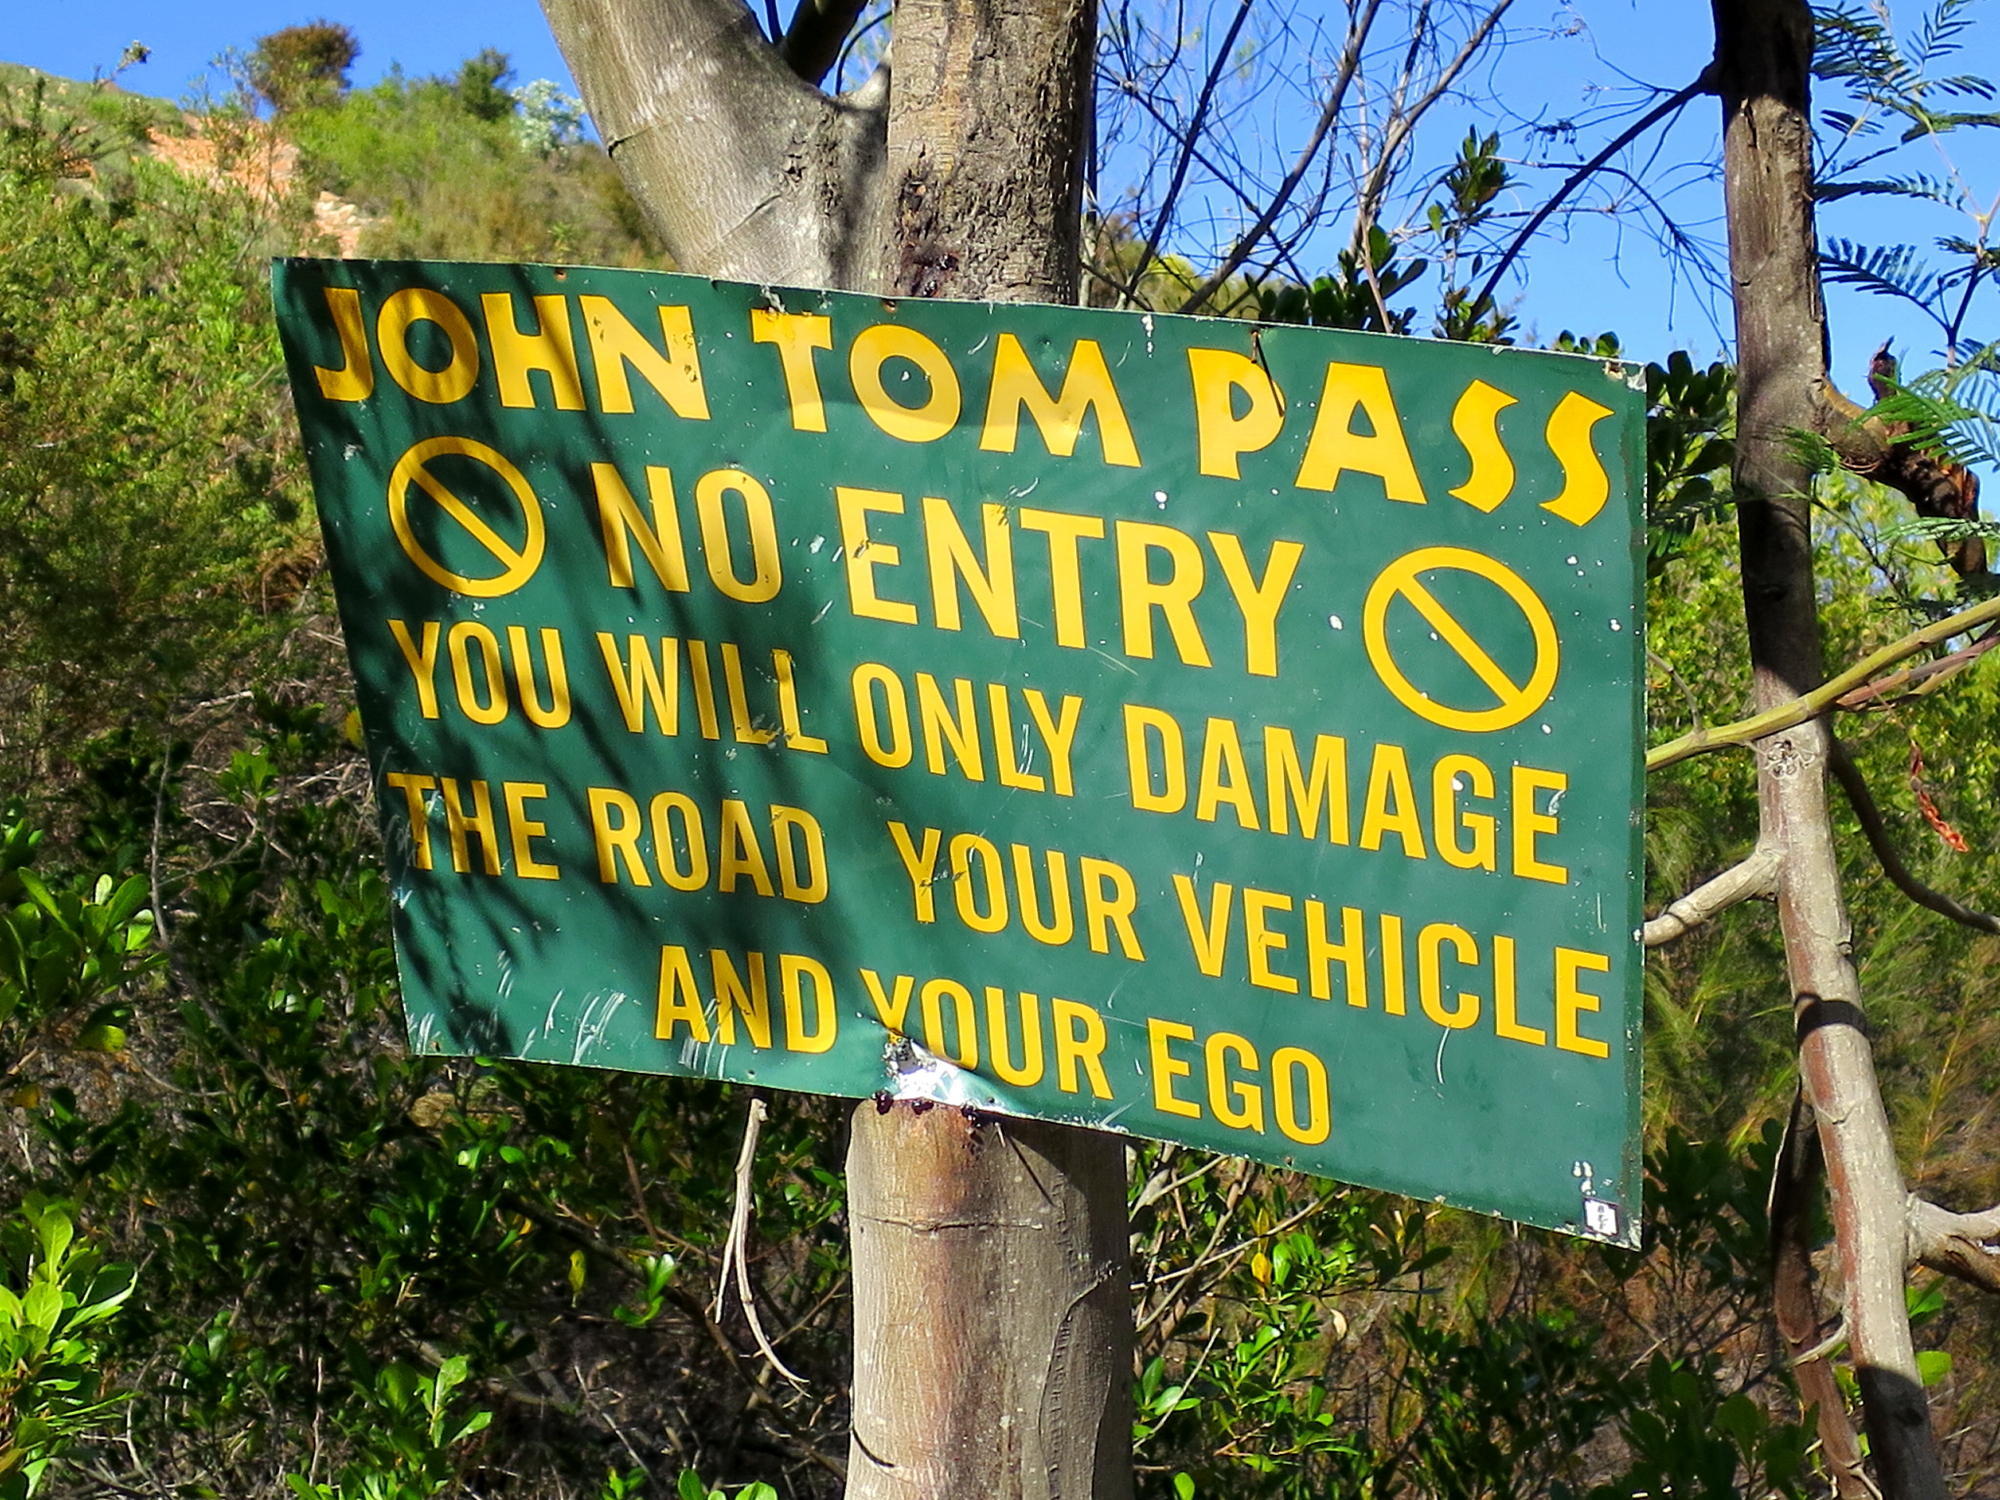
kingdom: Plantae
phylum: Tracheophyta
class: Magnoliopsida
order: Fabales
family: Fabaceae
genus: Acacia
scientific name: Acacia mearnsii
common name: Black wattle
